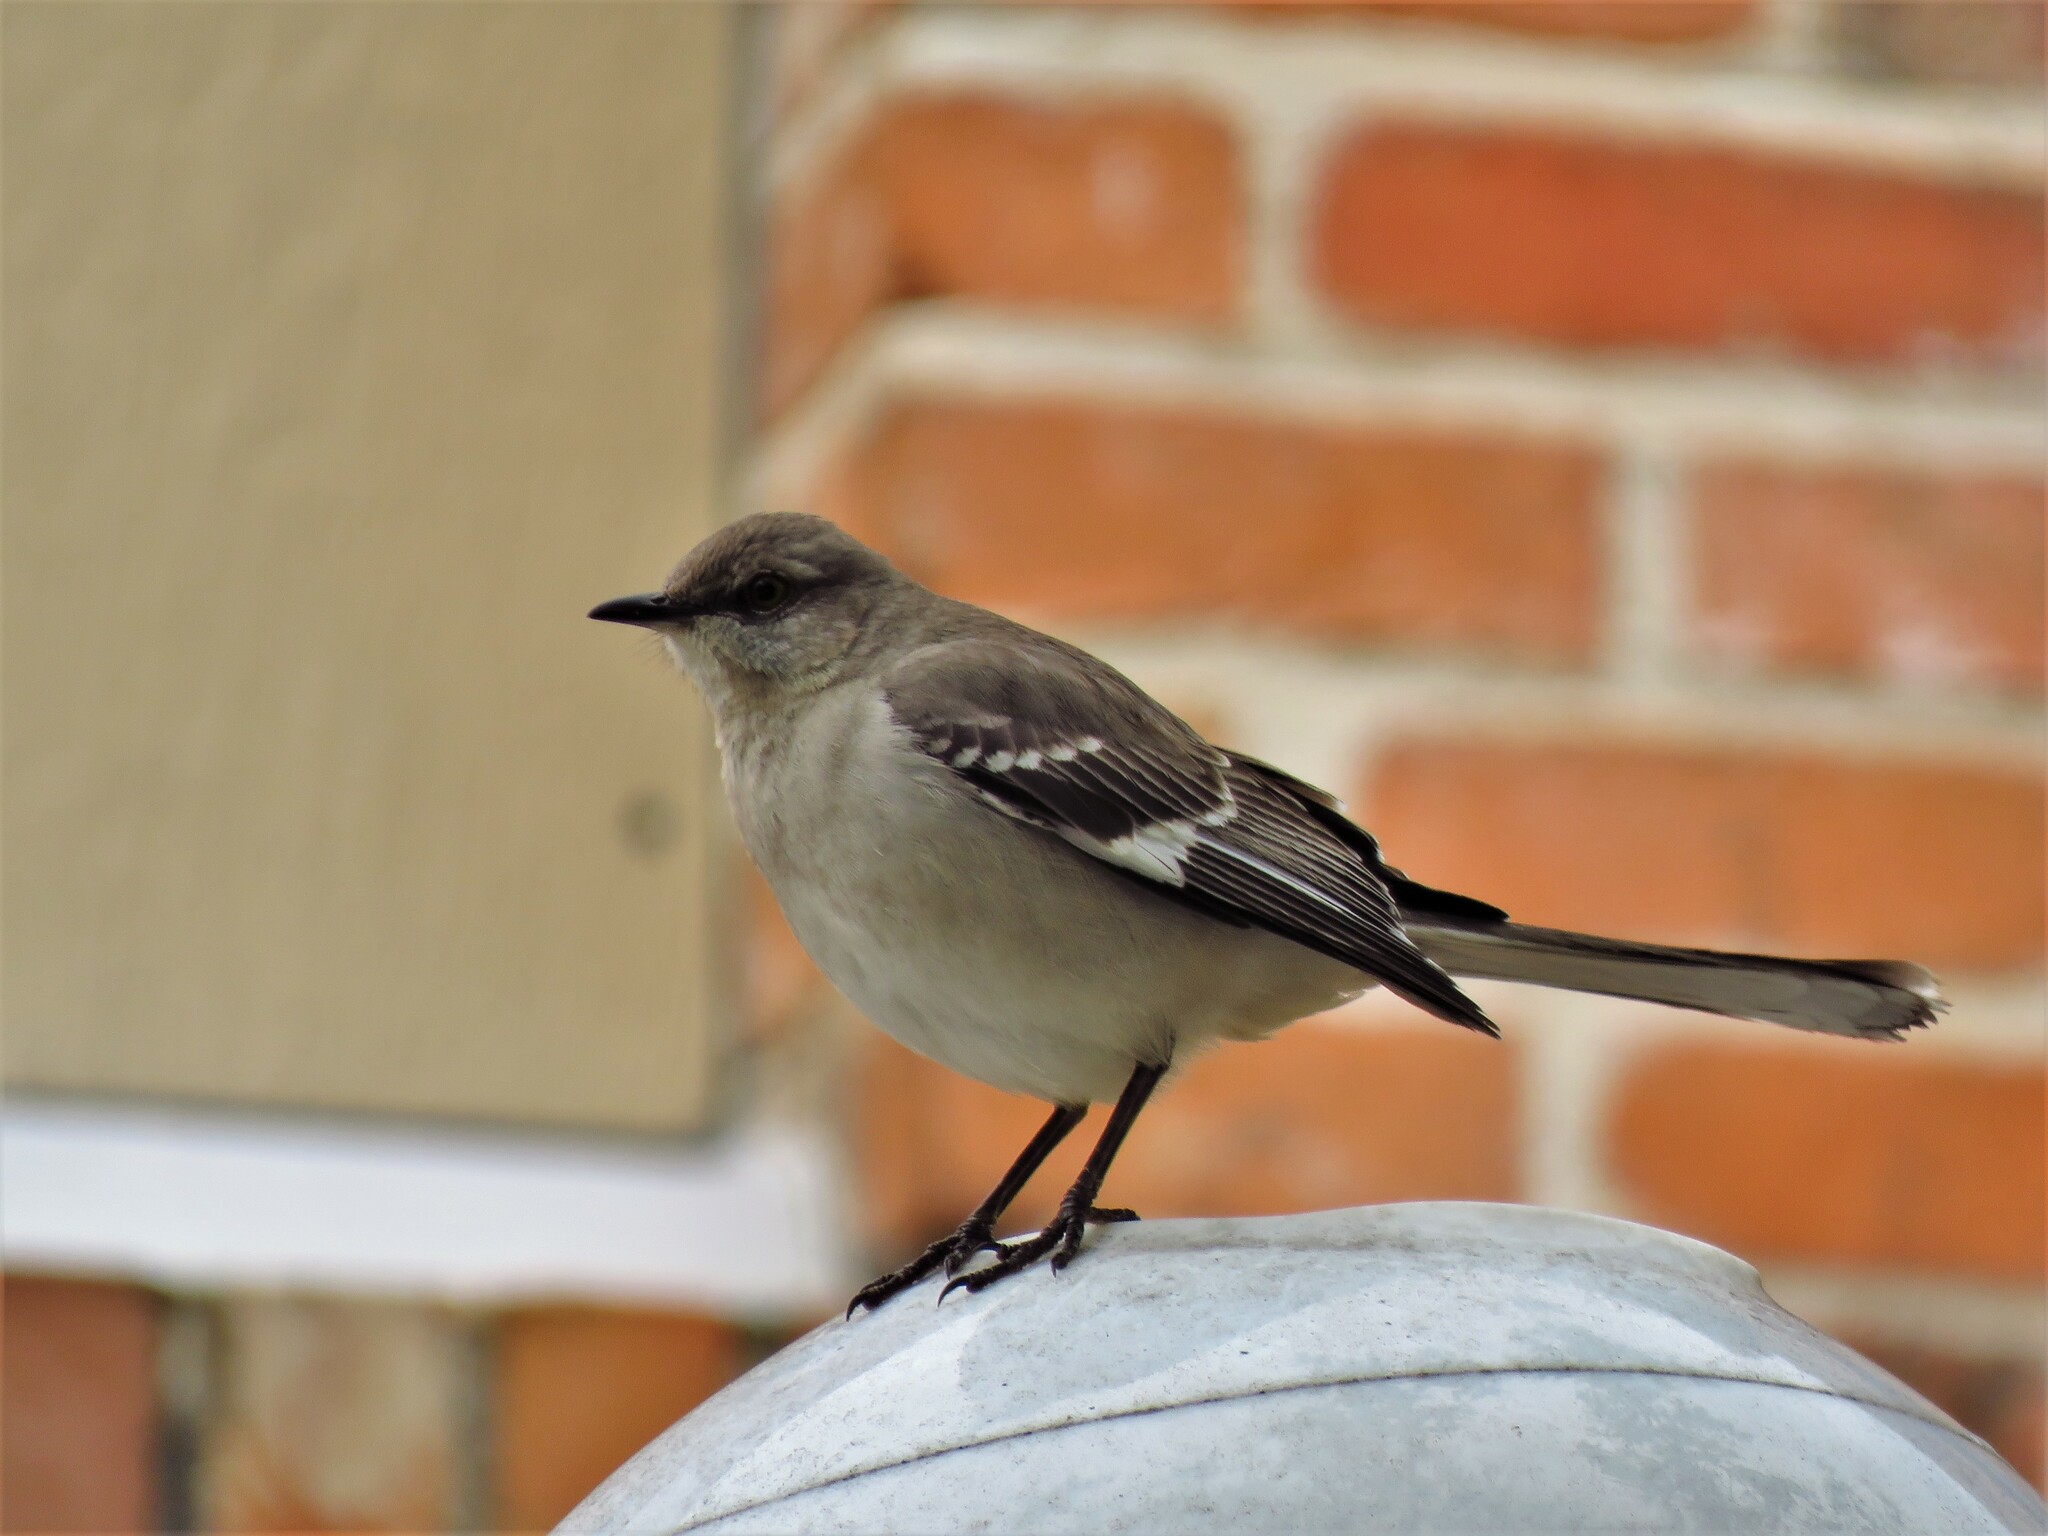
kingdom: Animalia
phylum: Chordata
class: Aves
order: Passeriformes
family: Mimidae
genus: Mimus
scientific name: Mimus polyglottos
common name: Northern mockingbird
